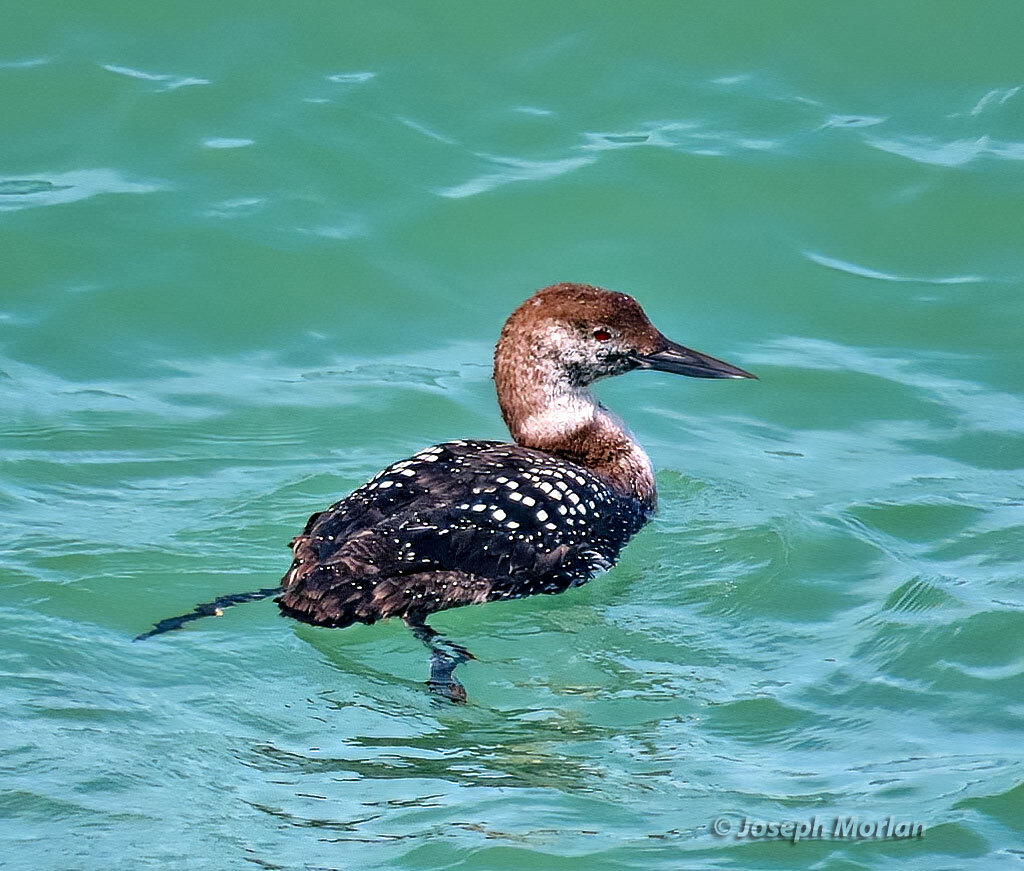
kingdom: Animalia
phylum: Chordata
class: Aves
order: Gaviiformes
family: Gaviidae
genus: Gavia
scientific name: Gavia immer
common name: Common loon
